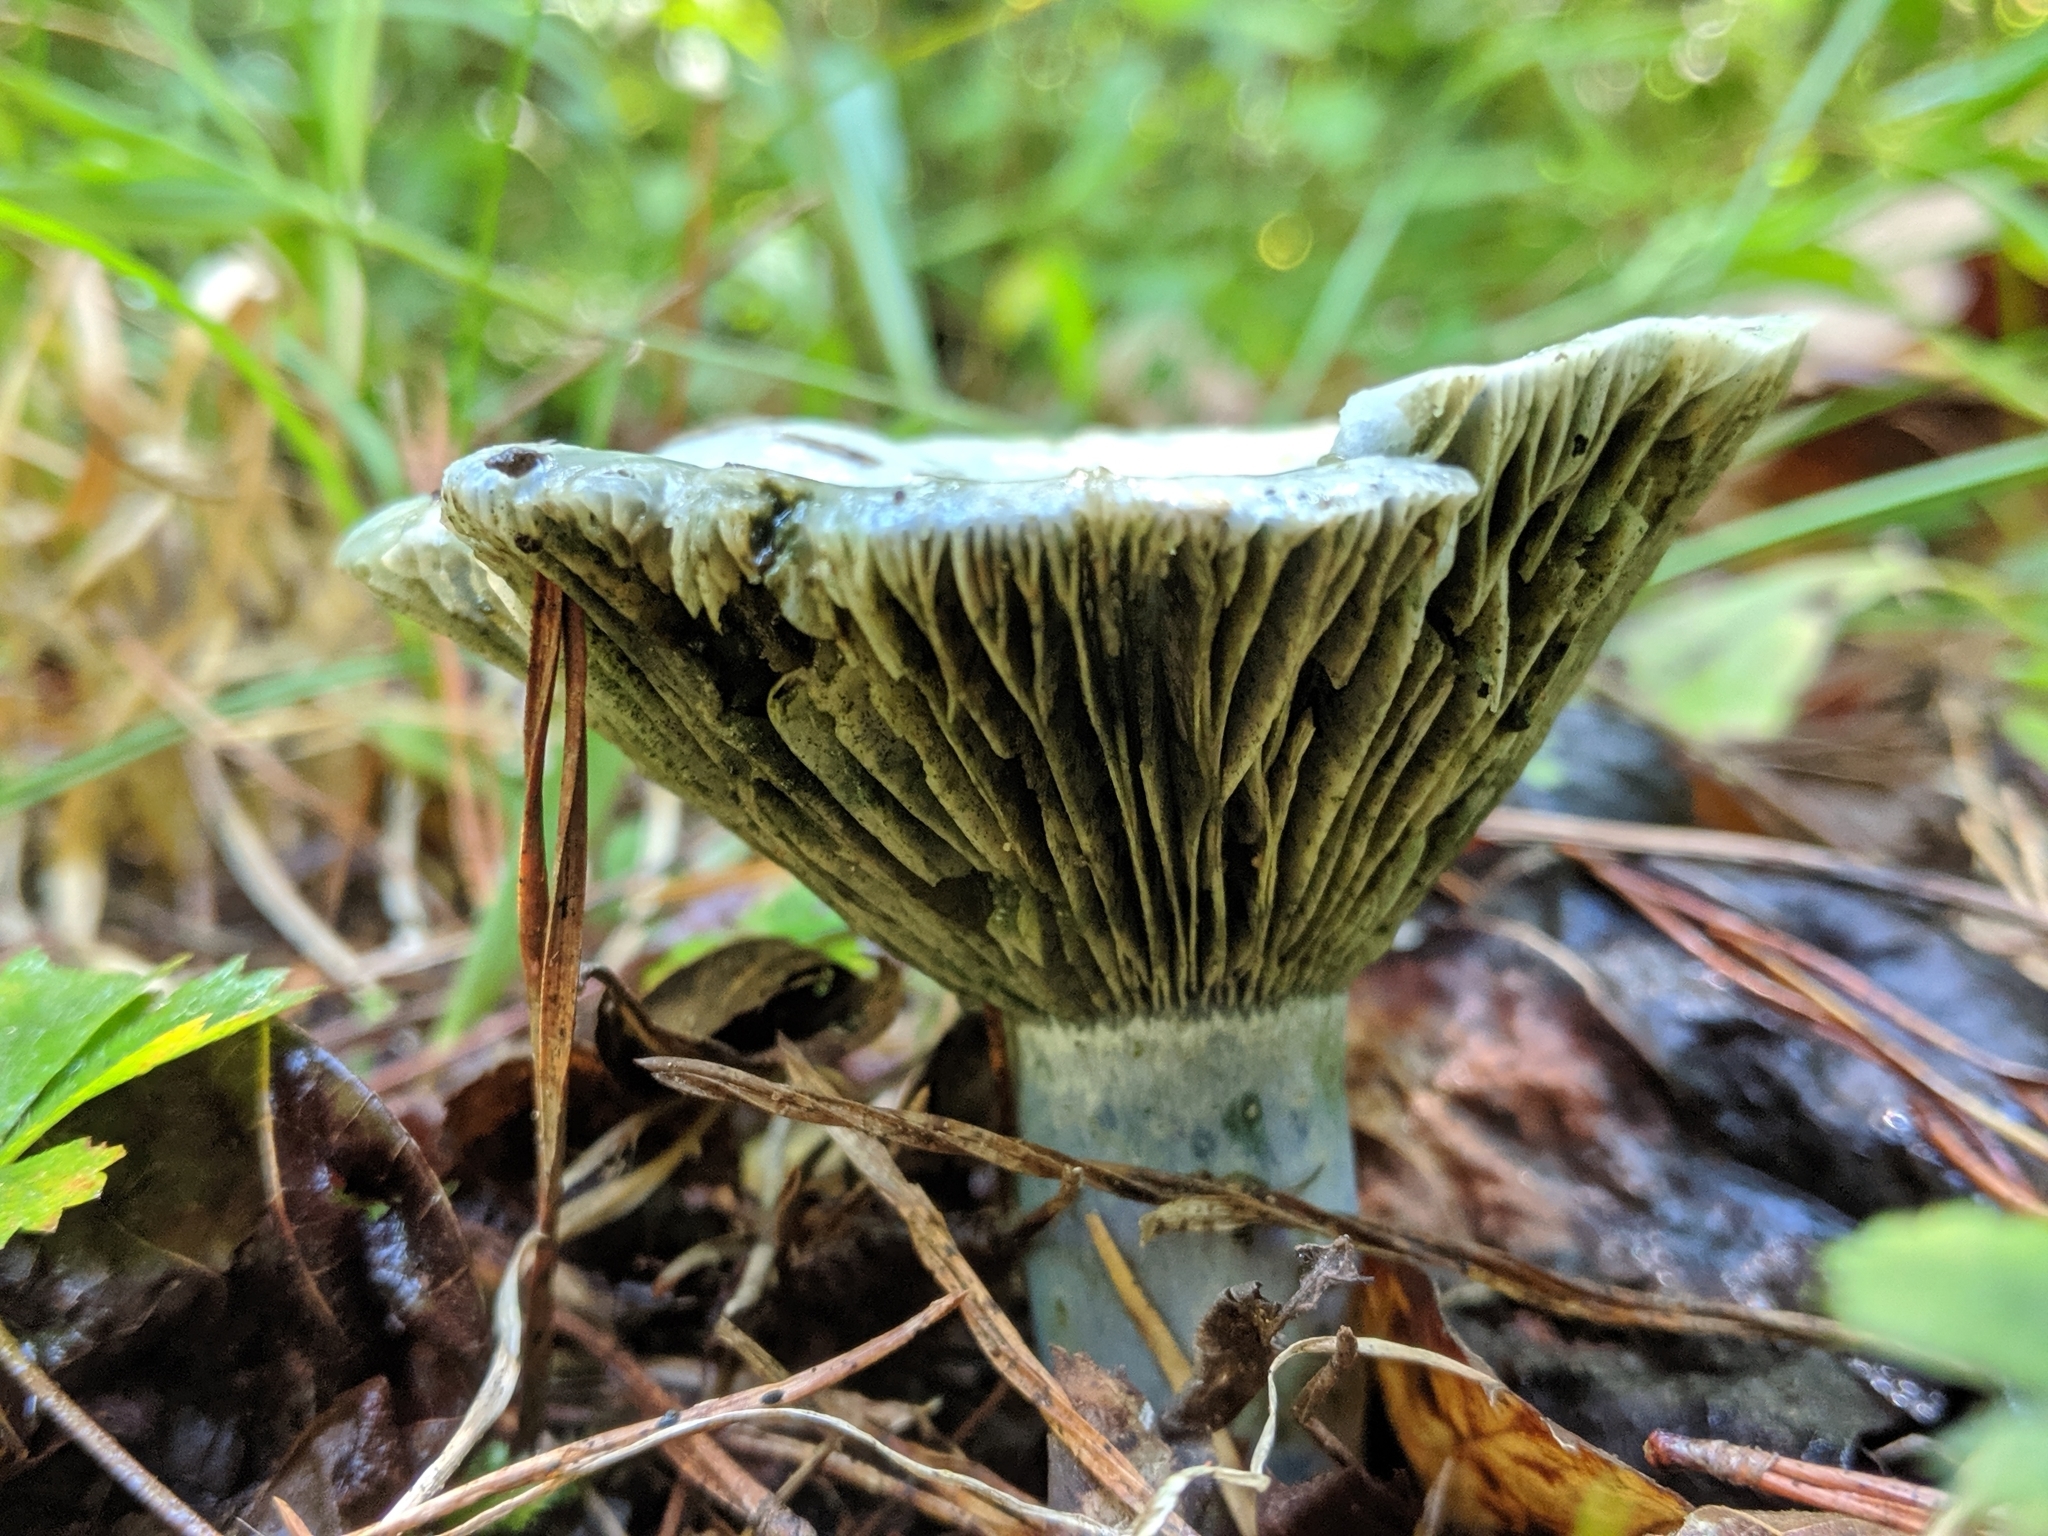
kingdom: Fungi
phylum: Basidiomycota
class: Agaricomycetes
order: Russulales
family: Russulaceae
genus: Lactarius
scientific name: Lactarius indigo
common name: Indigo milk cap
